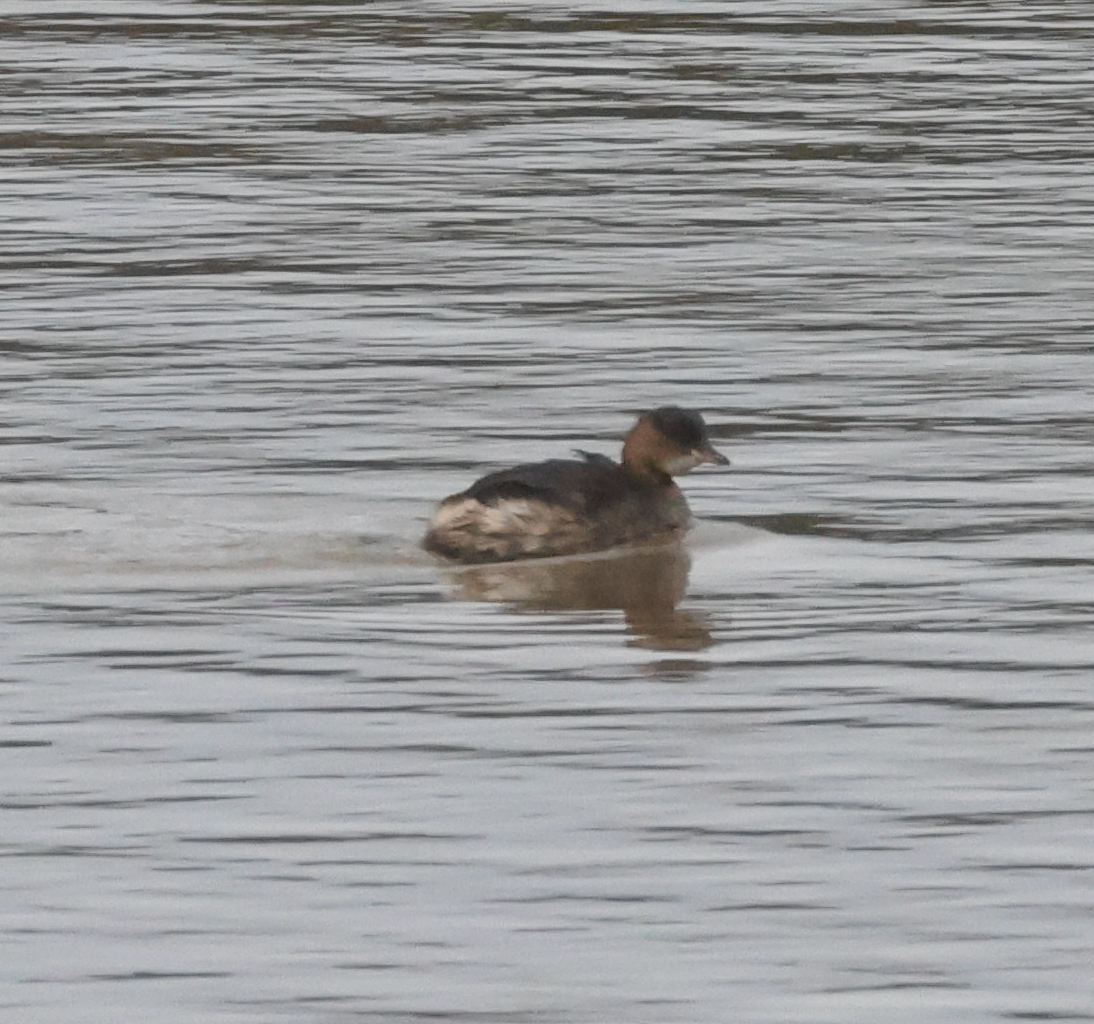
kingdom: Animalia
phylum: Chordata
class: Aves
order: Podicipediformes
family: Podicipedidae
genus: Tachybaptus
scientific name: Tachybaptus ruficollis
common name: Little grebe
